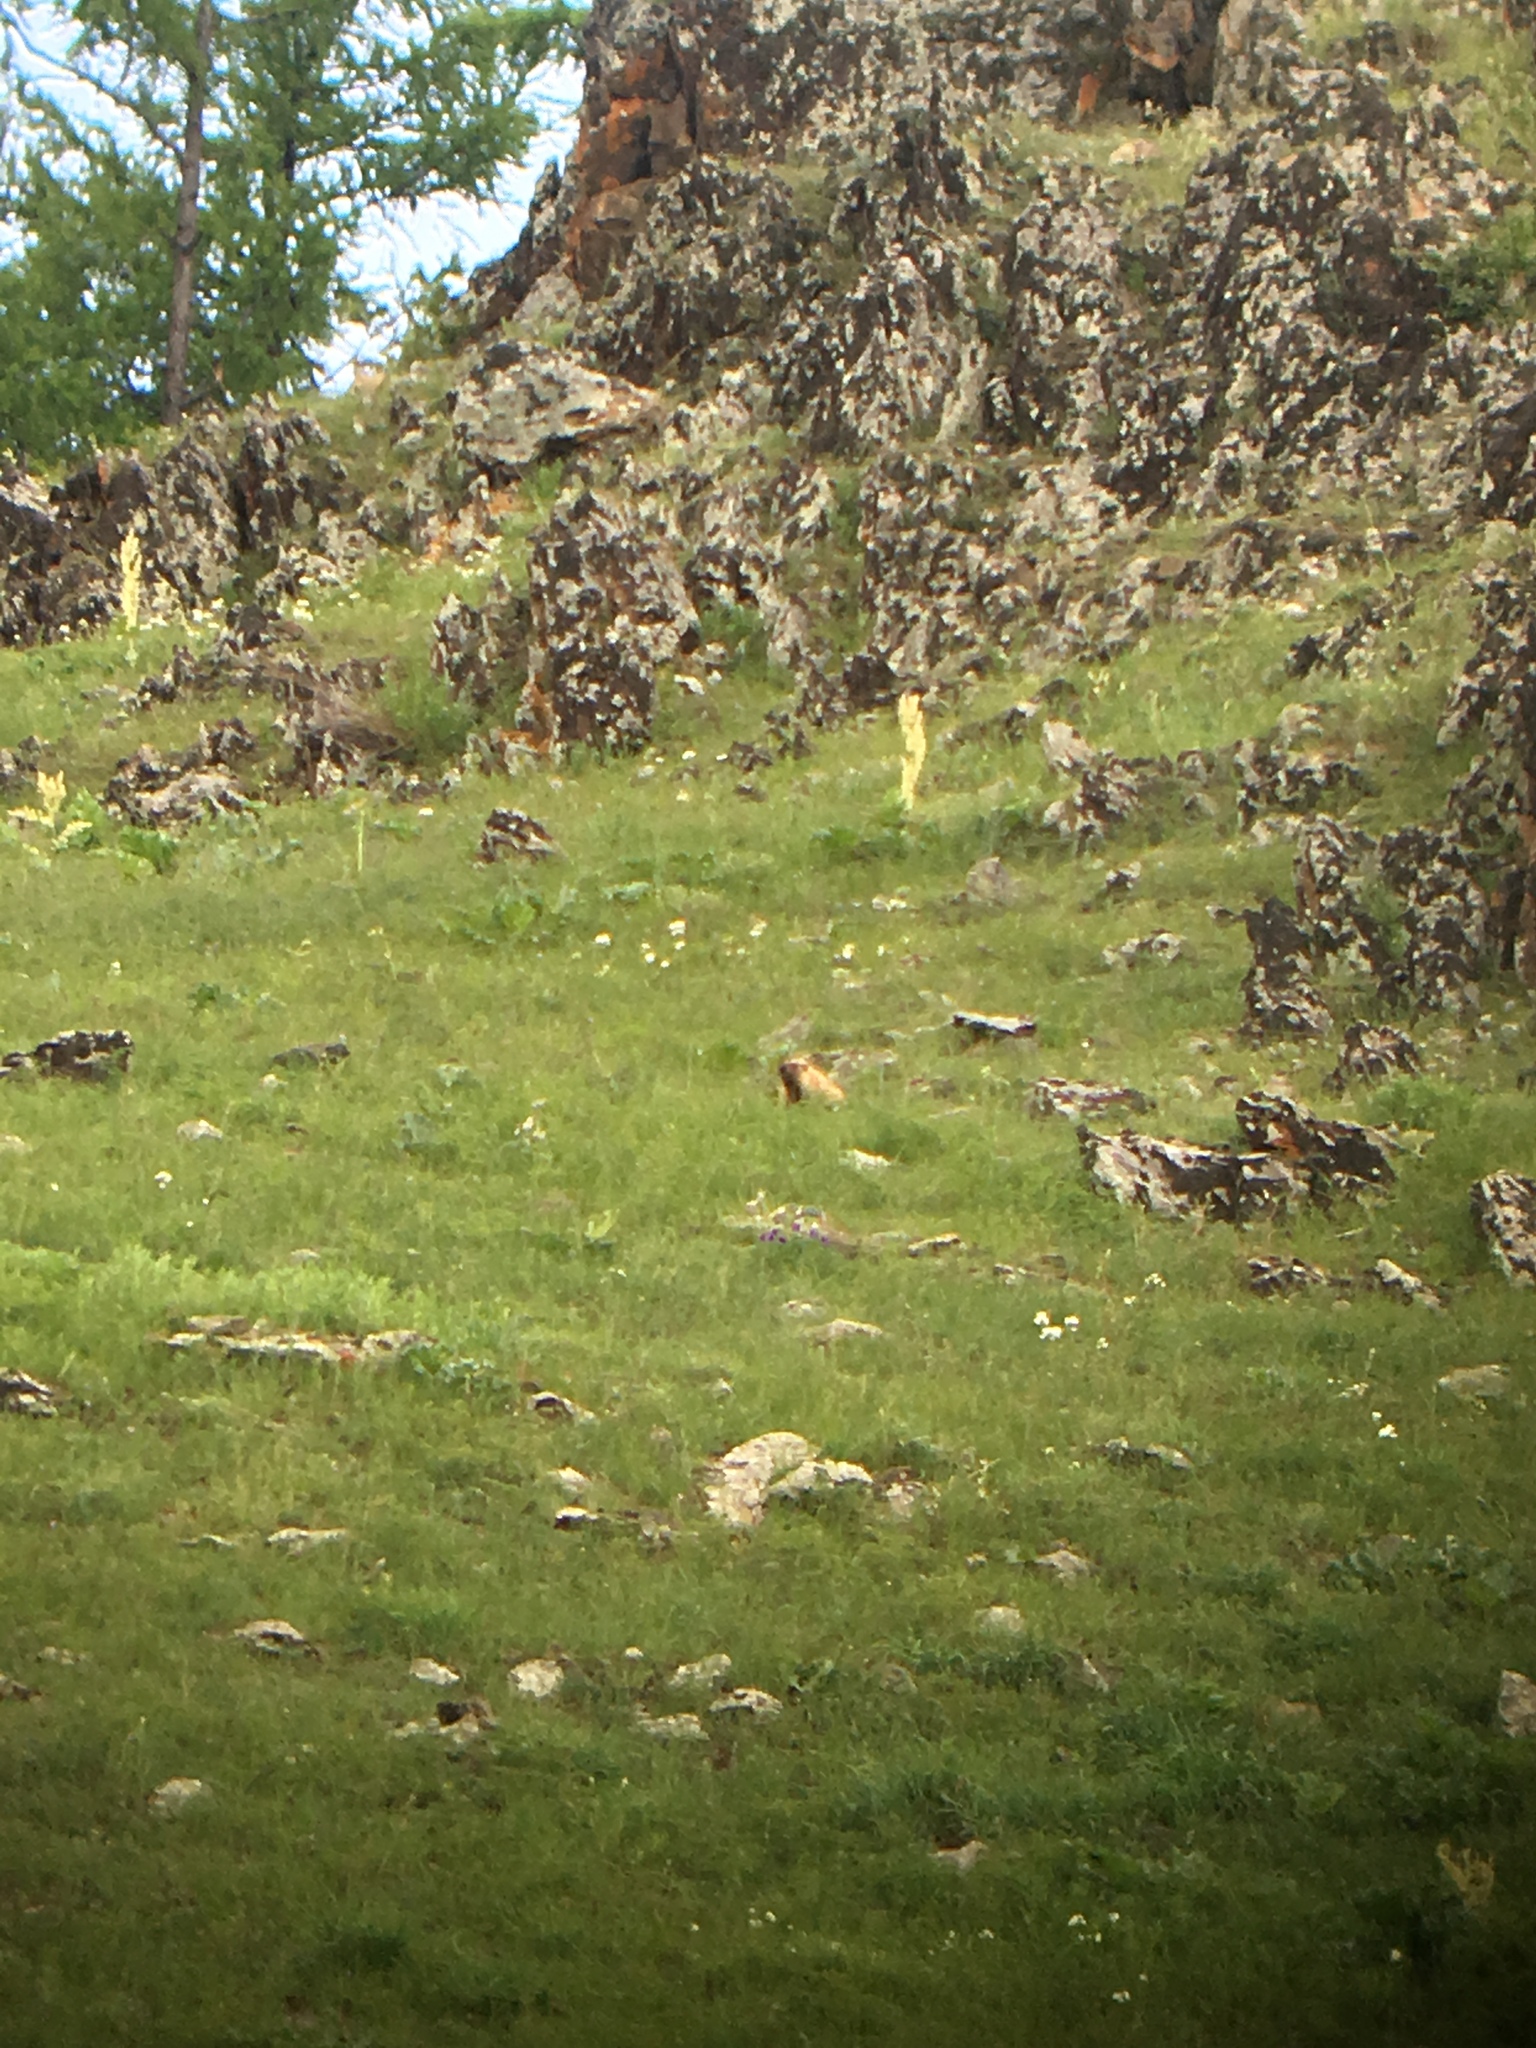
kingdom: Animalia
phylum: Chordata
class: Mammalia
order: Rodentia
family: Sciuridae
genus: Marmota
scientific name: Marmota sibirica
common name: Tarbagan marmot
